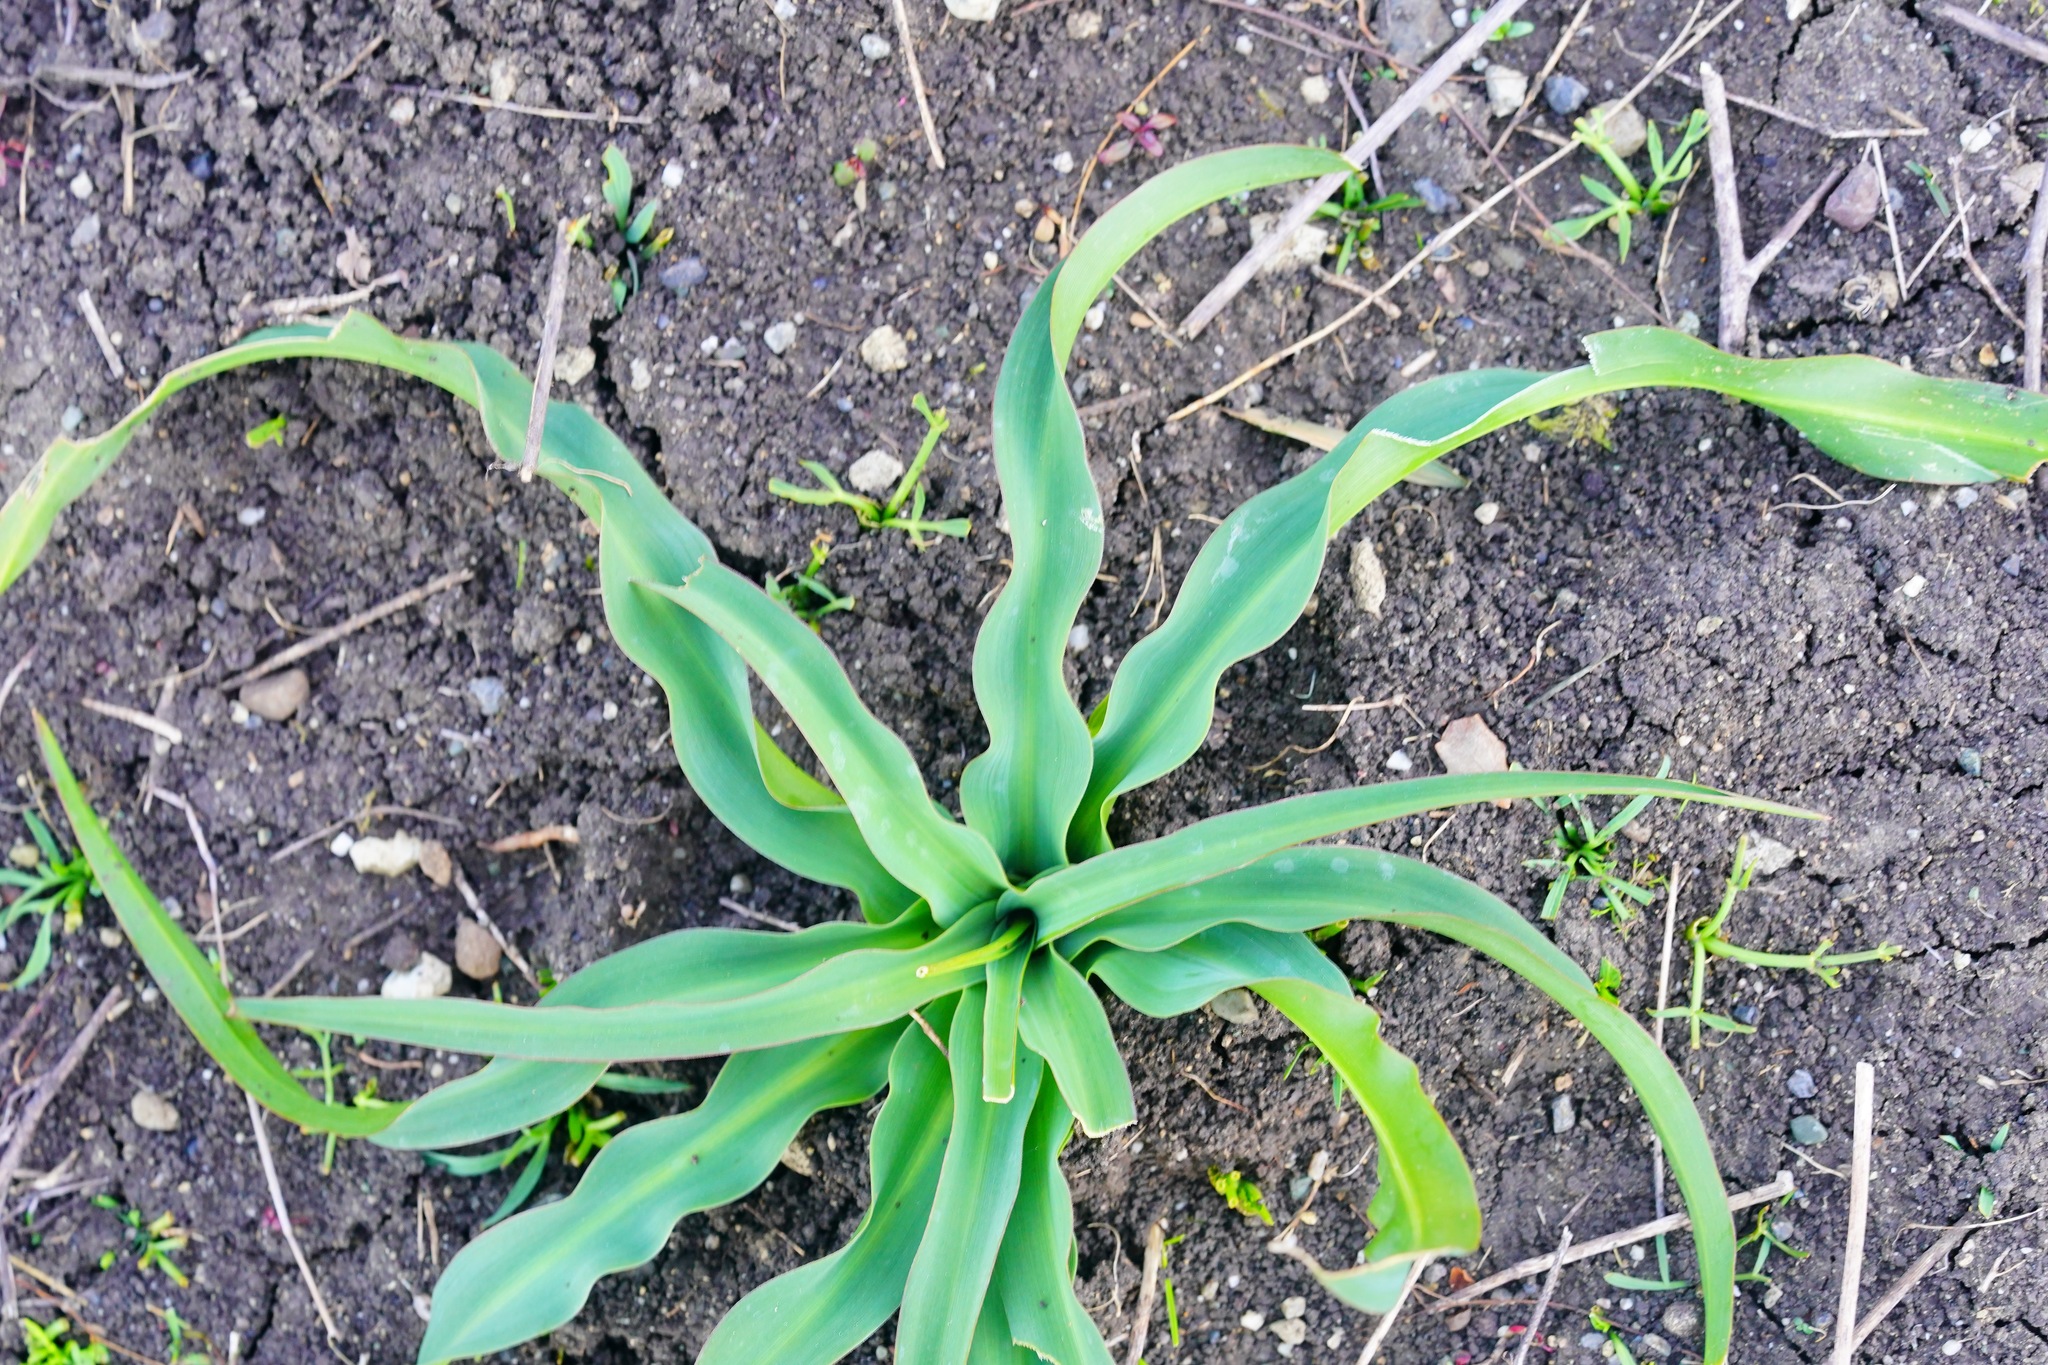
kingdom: Plantae
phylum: Tracheophyta
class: Liliopsida
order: Asparagales
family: Asparagaceae
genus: Chlorogalum
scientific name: Chlorogalum pomeridianum
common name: Amole
